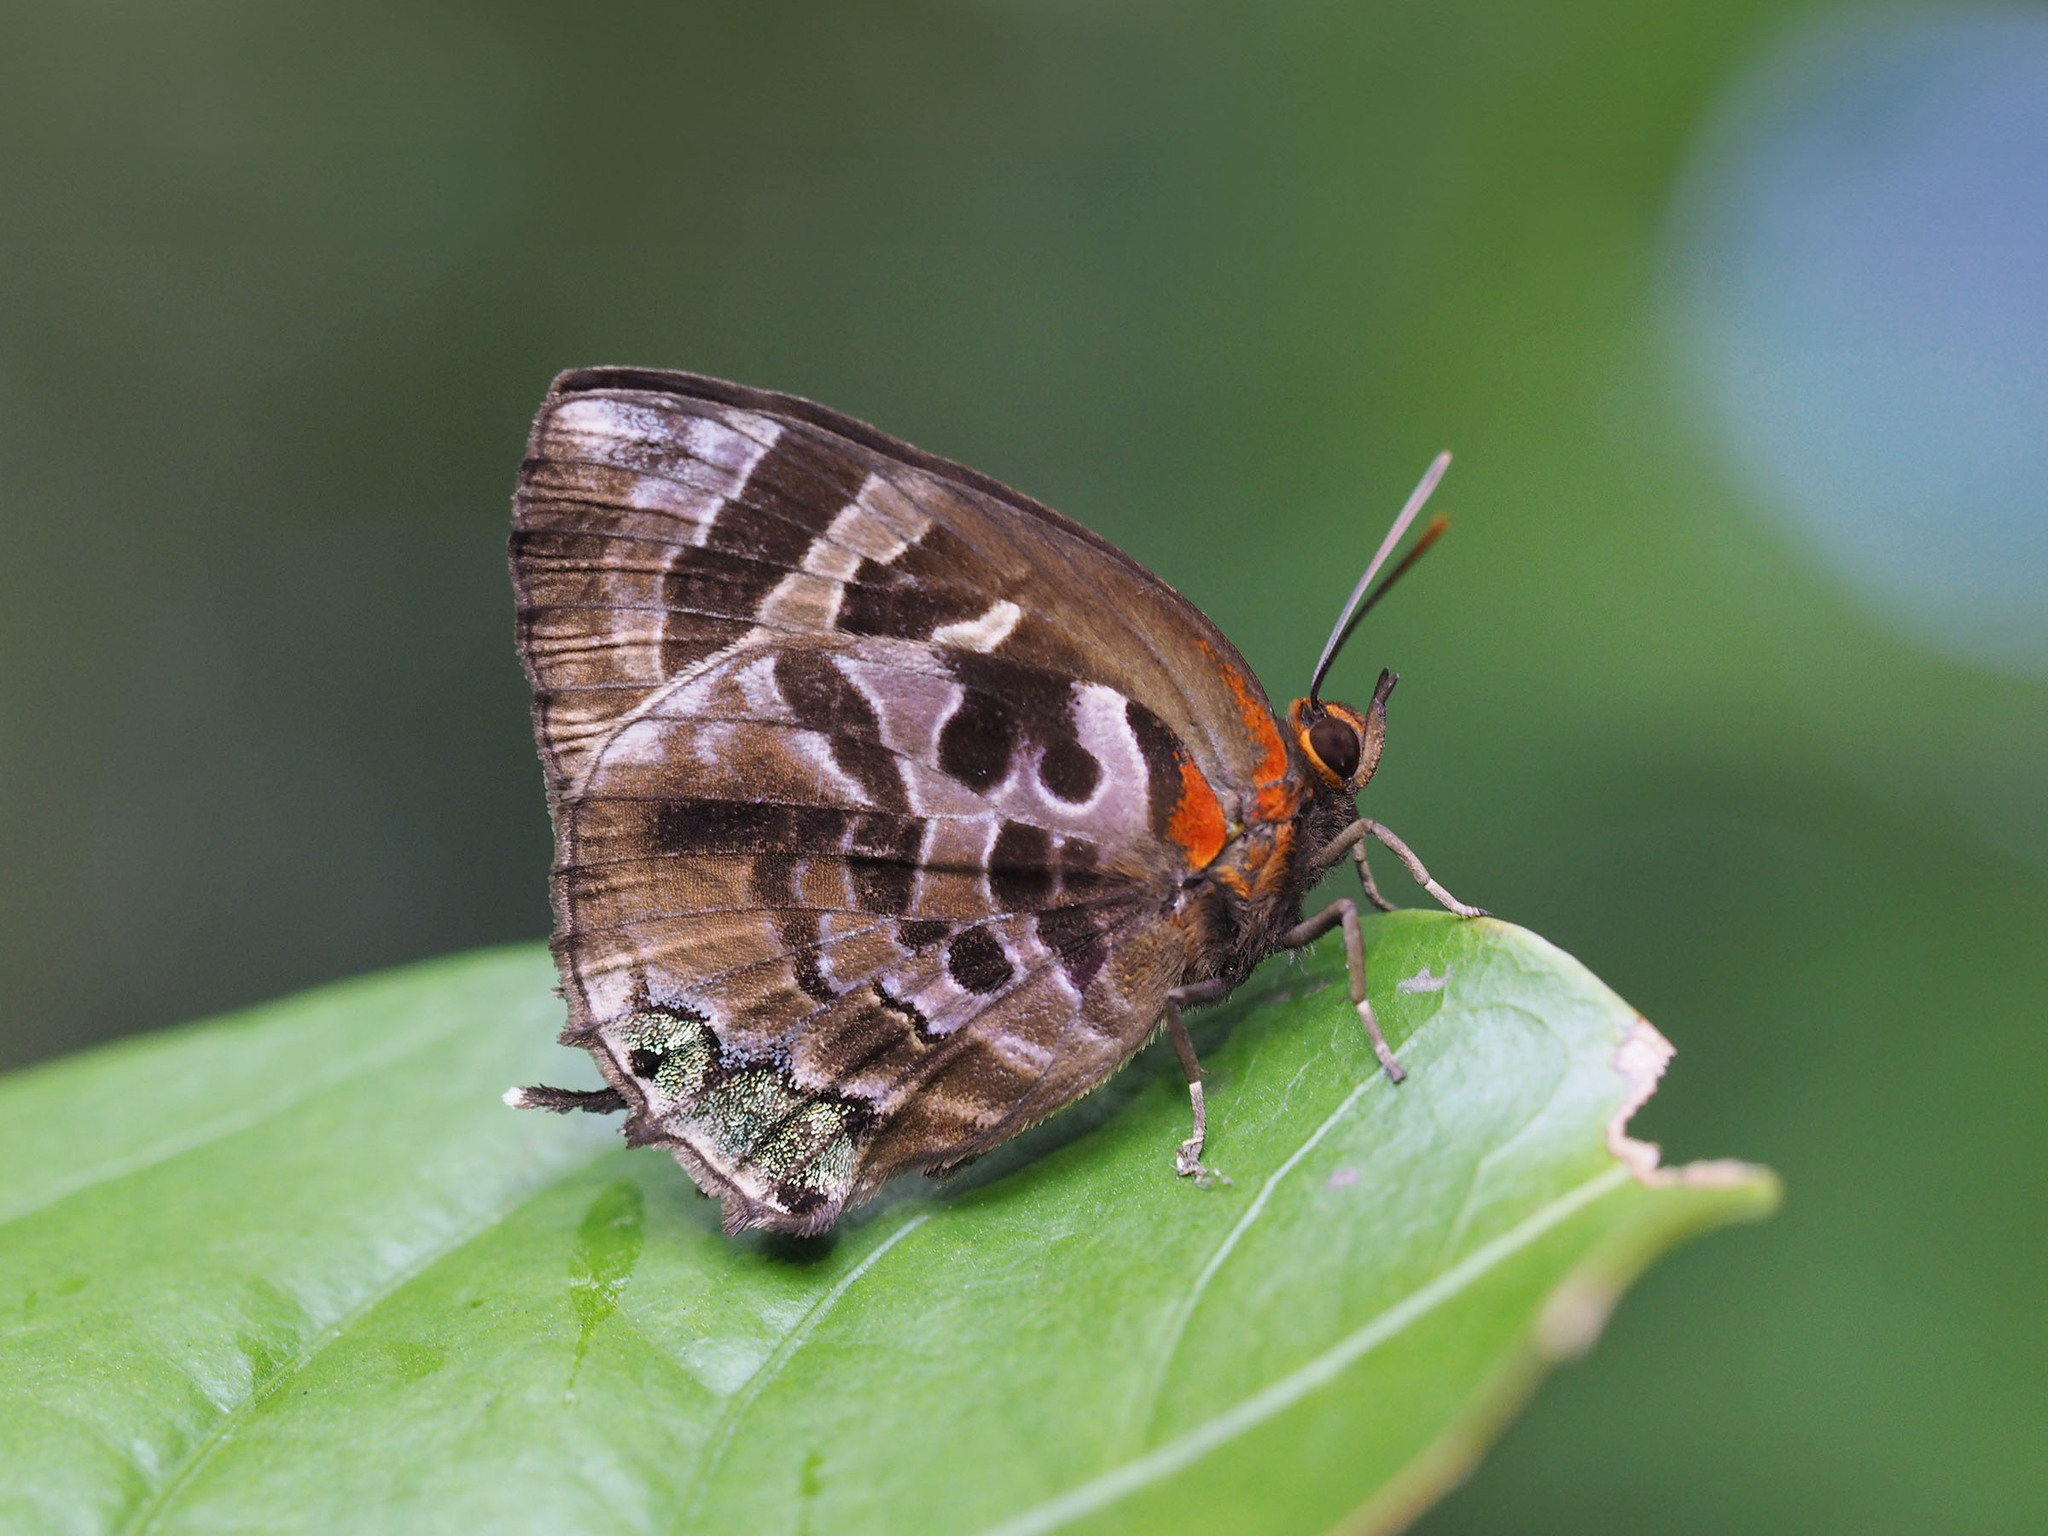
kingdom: Animalia
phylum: Arthropoda
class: Insecta
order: Lepidoptera
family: Lycaenidae
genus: Flos
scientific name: Flos
